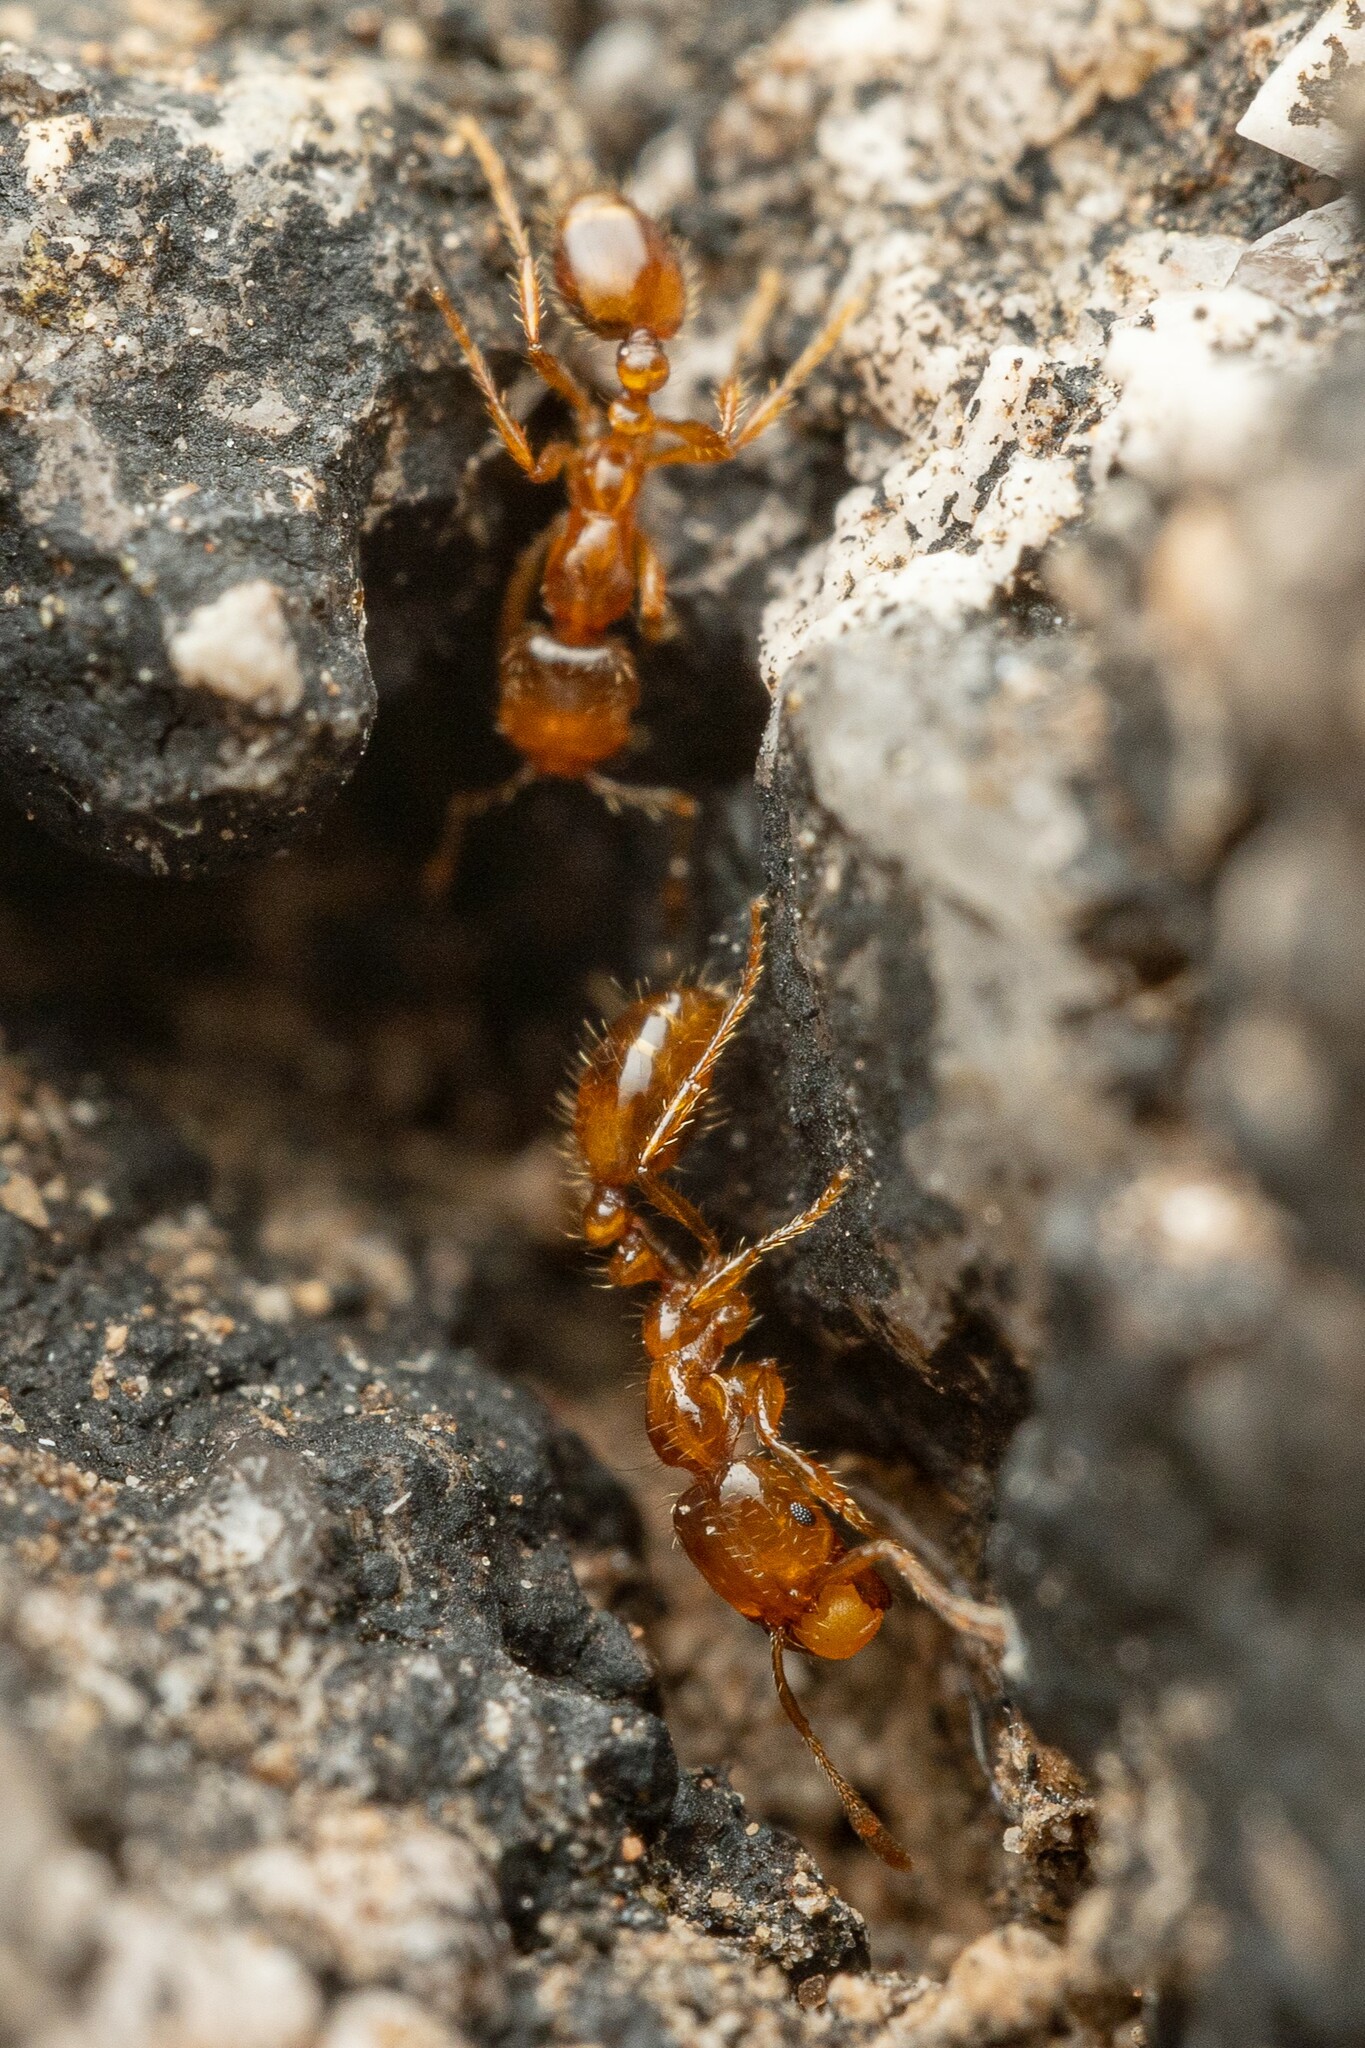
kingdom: Animalia
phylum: Arthropoda
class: Insecta
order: Hymenoptera
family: Formicidae
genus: Solenopsis
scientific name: Solenopsis aurea
